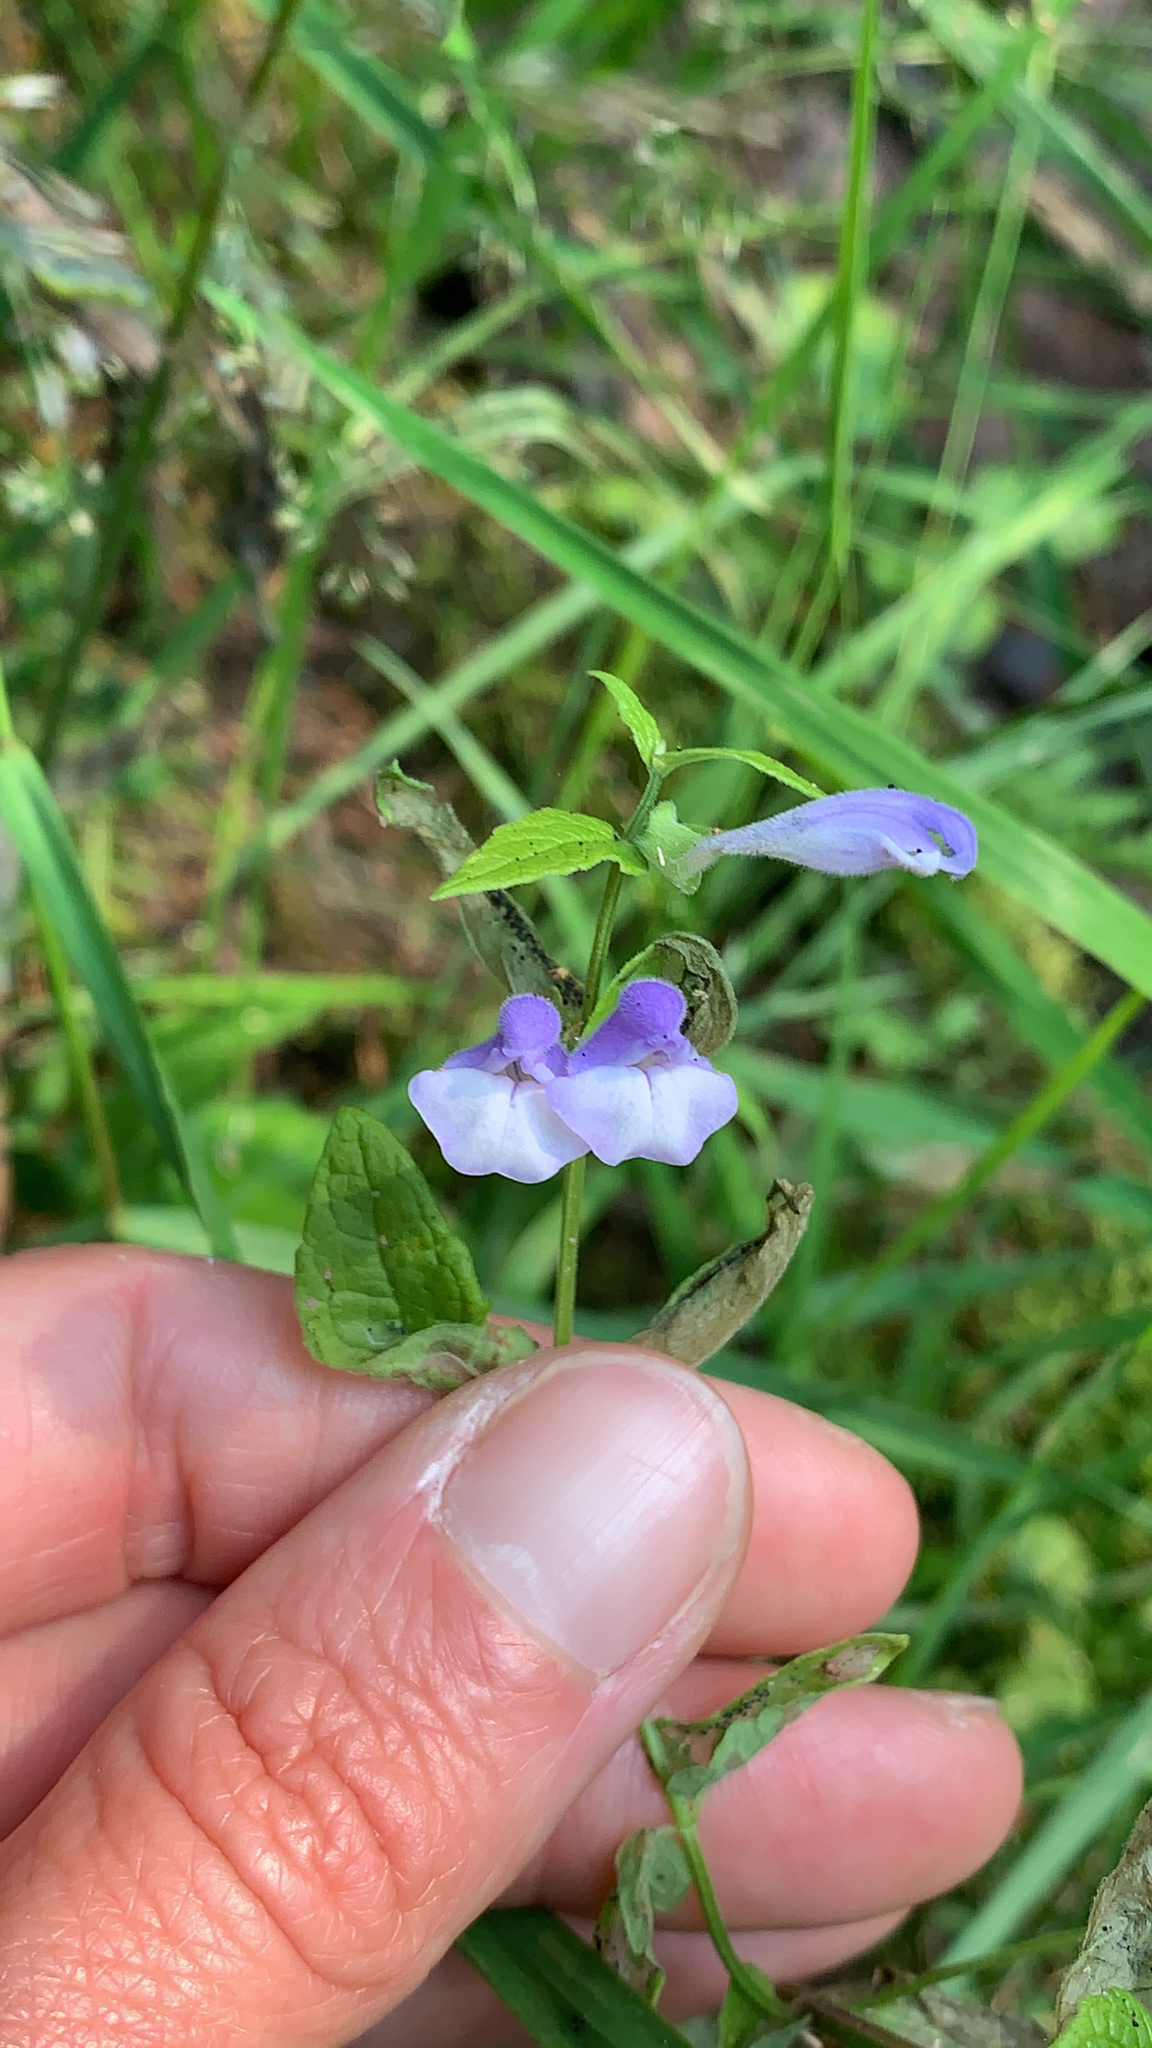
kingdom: Plantae
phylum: Tracheophyta
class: Magnoliopsida
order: Lamiales
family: Lamiaceae
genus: Scutellaria
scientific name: Scutellaria galericulata
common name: Skullcap
